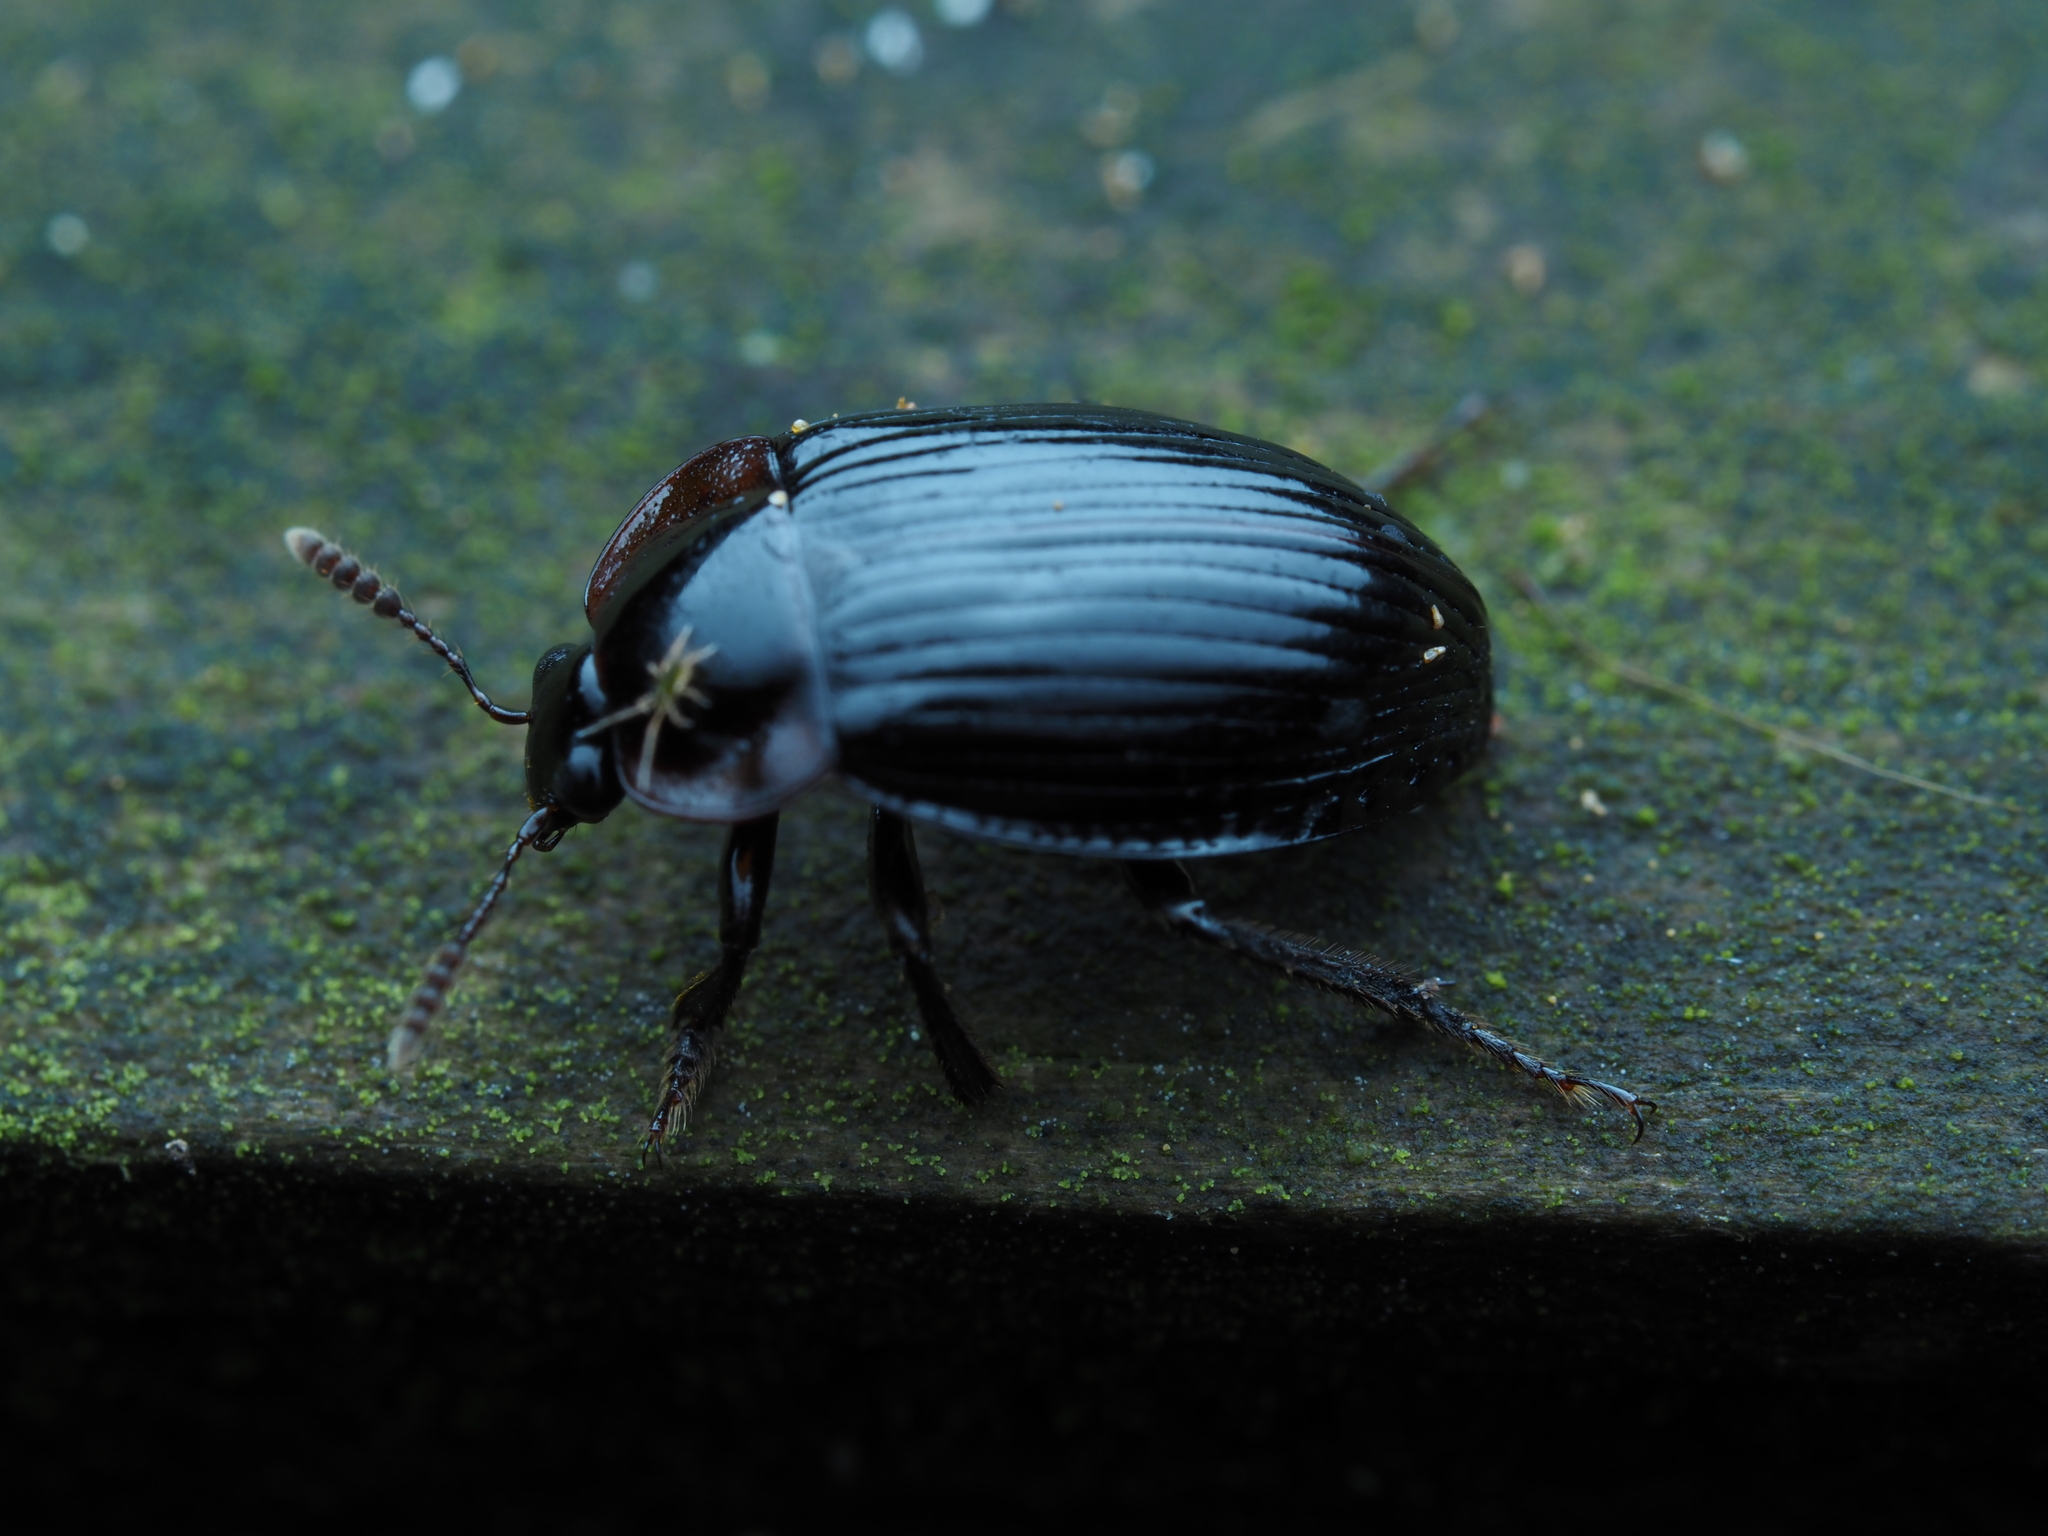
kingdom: Animalia
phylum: Arthropoda
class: Insecta
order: Coleoptera
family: Agyrtidae
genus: Zeanecrophilus
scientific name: Zeanecrophilus thayerae
